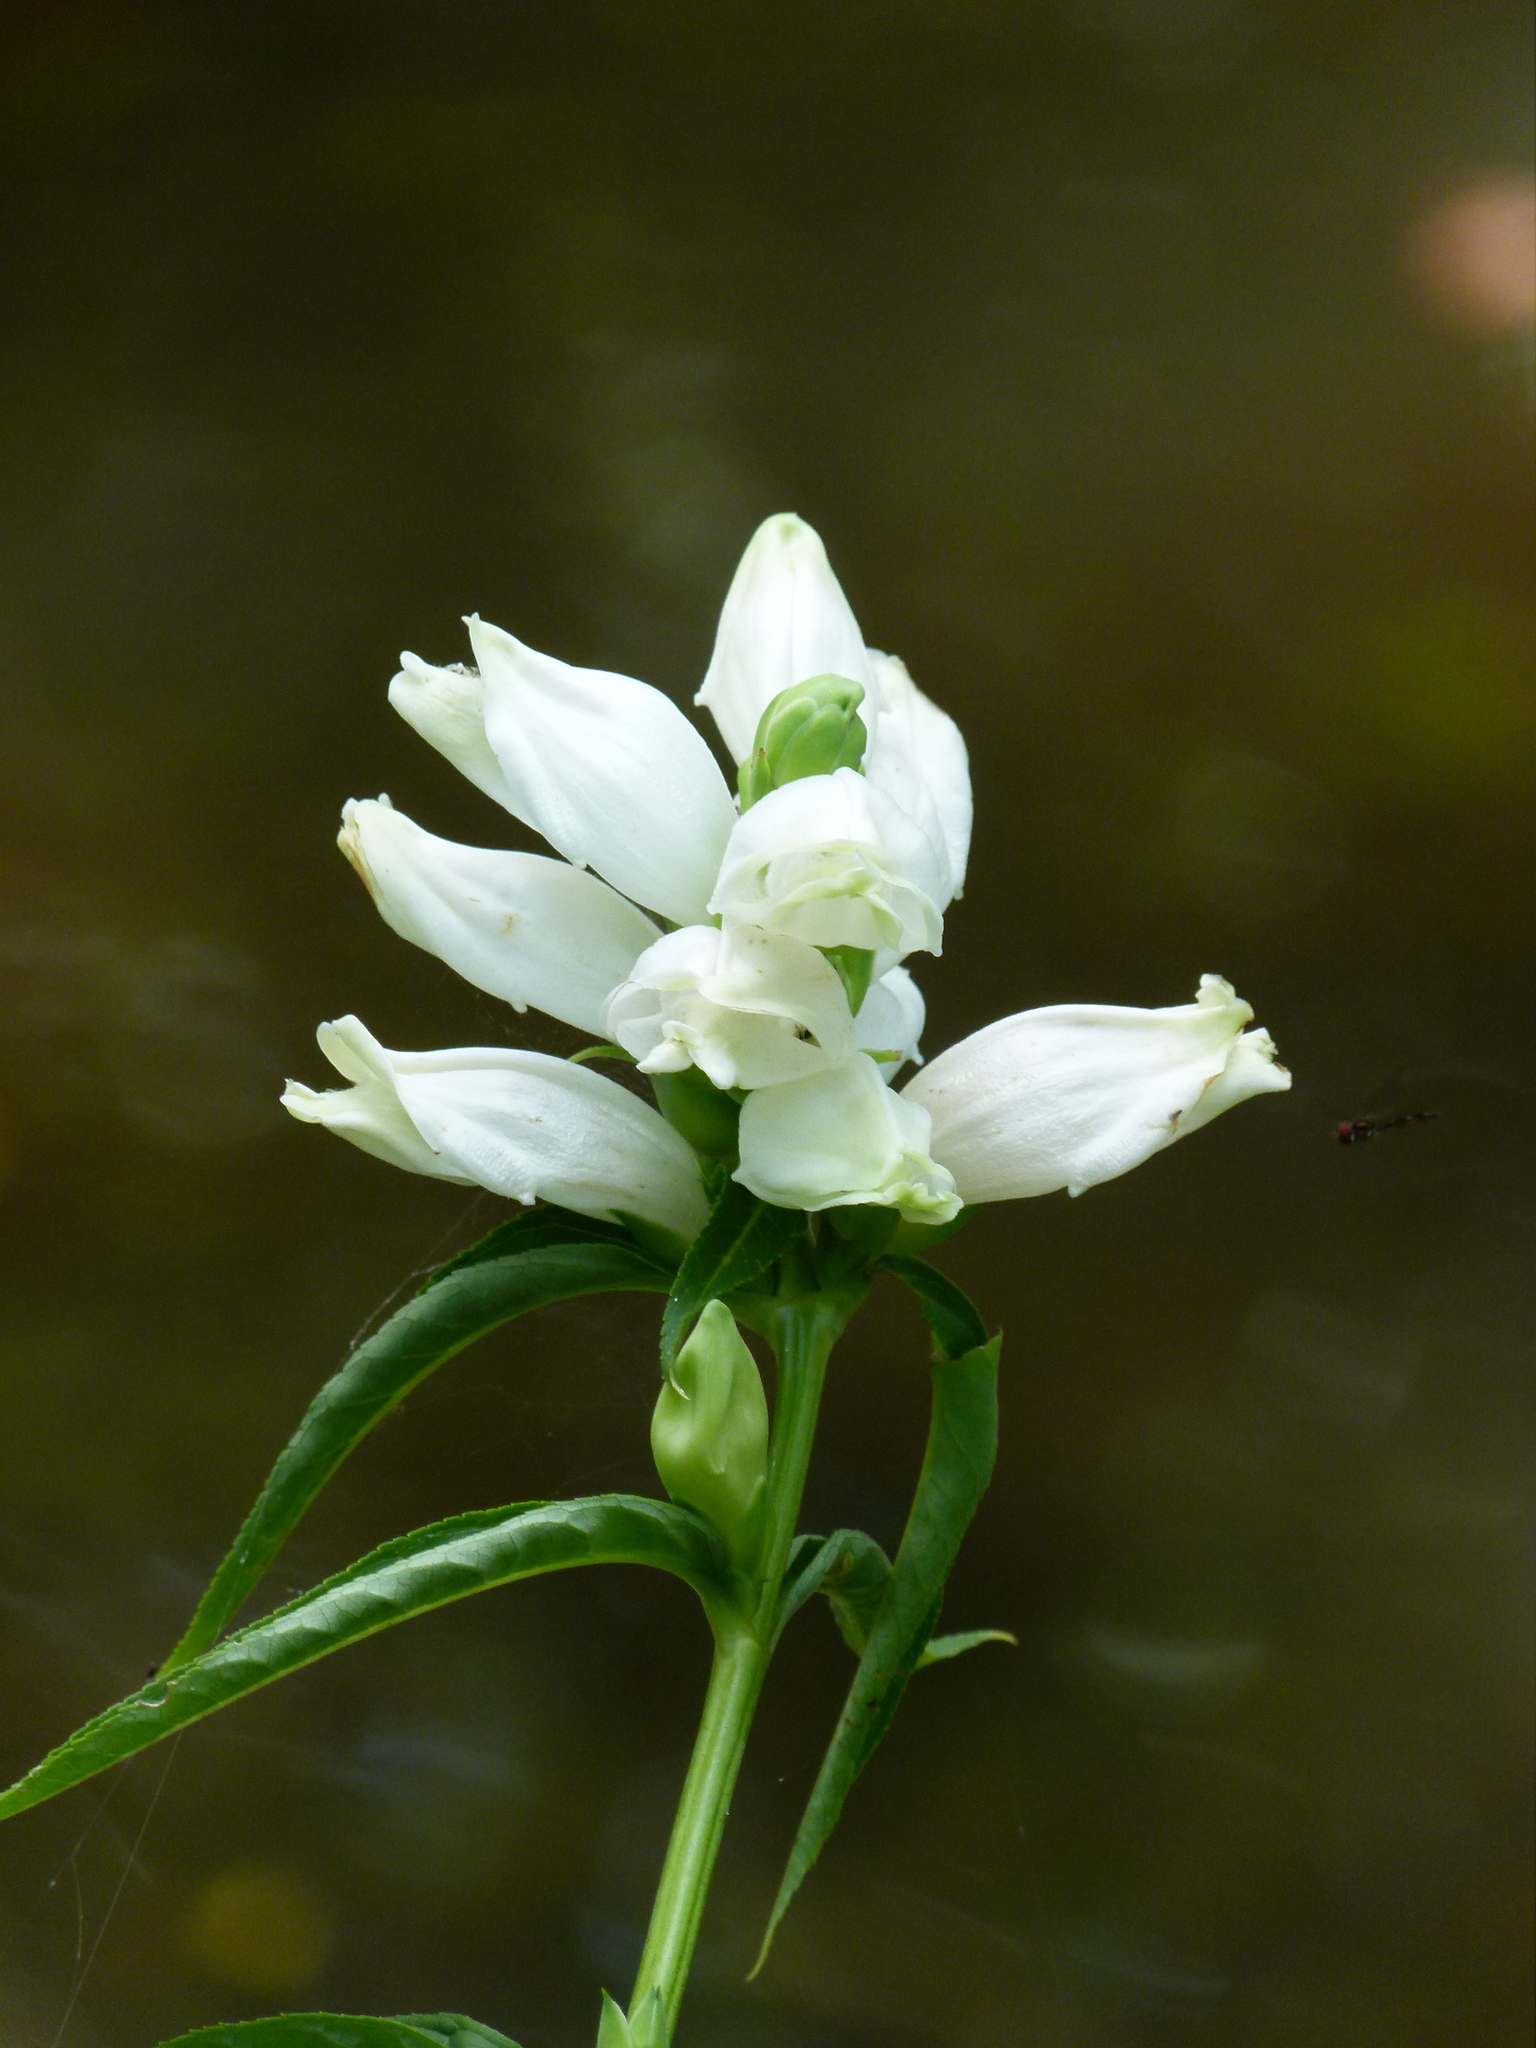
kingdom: Plantae
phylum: Tracheophyta
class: Magnoliopsida
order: Lamiales
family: Plantaginaceae
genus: Chelone
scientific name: Chelone glabra
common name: Snakehead
